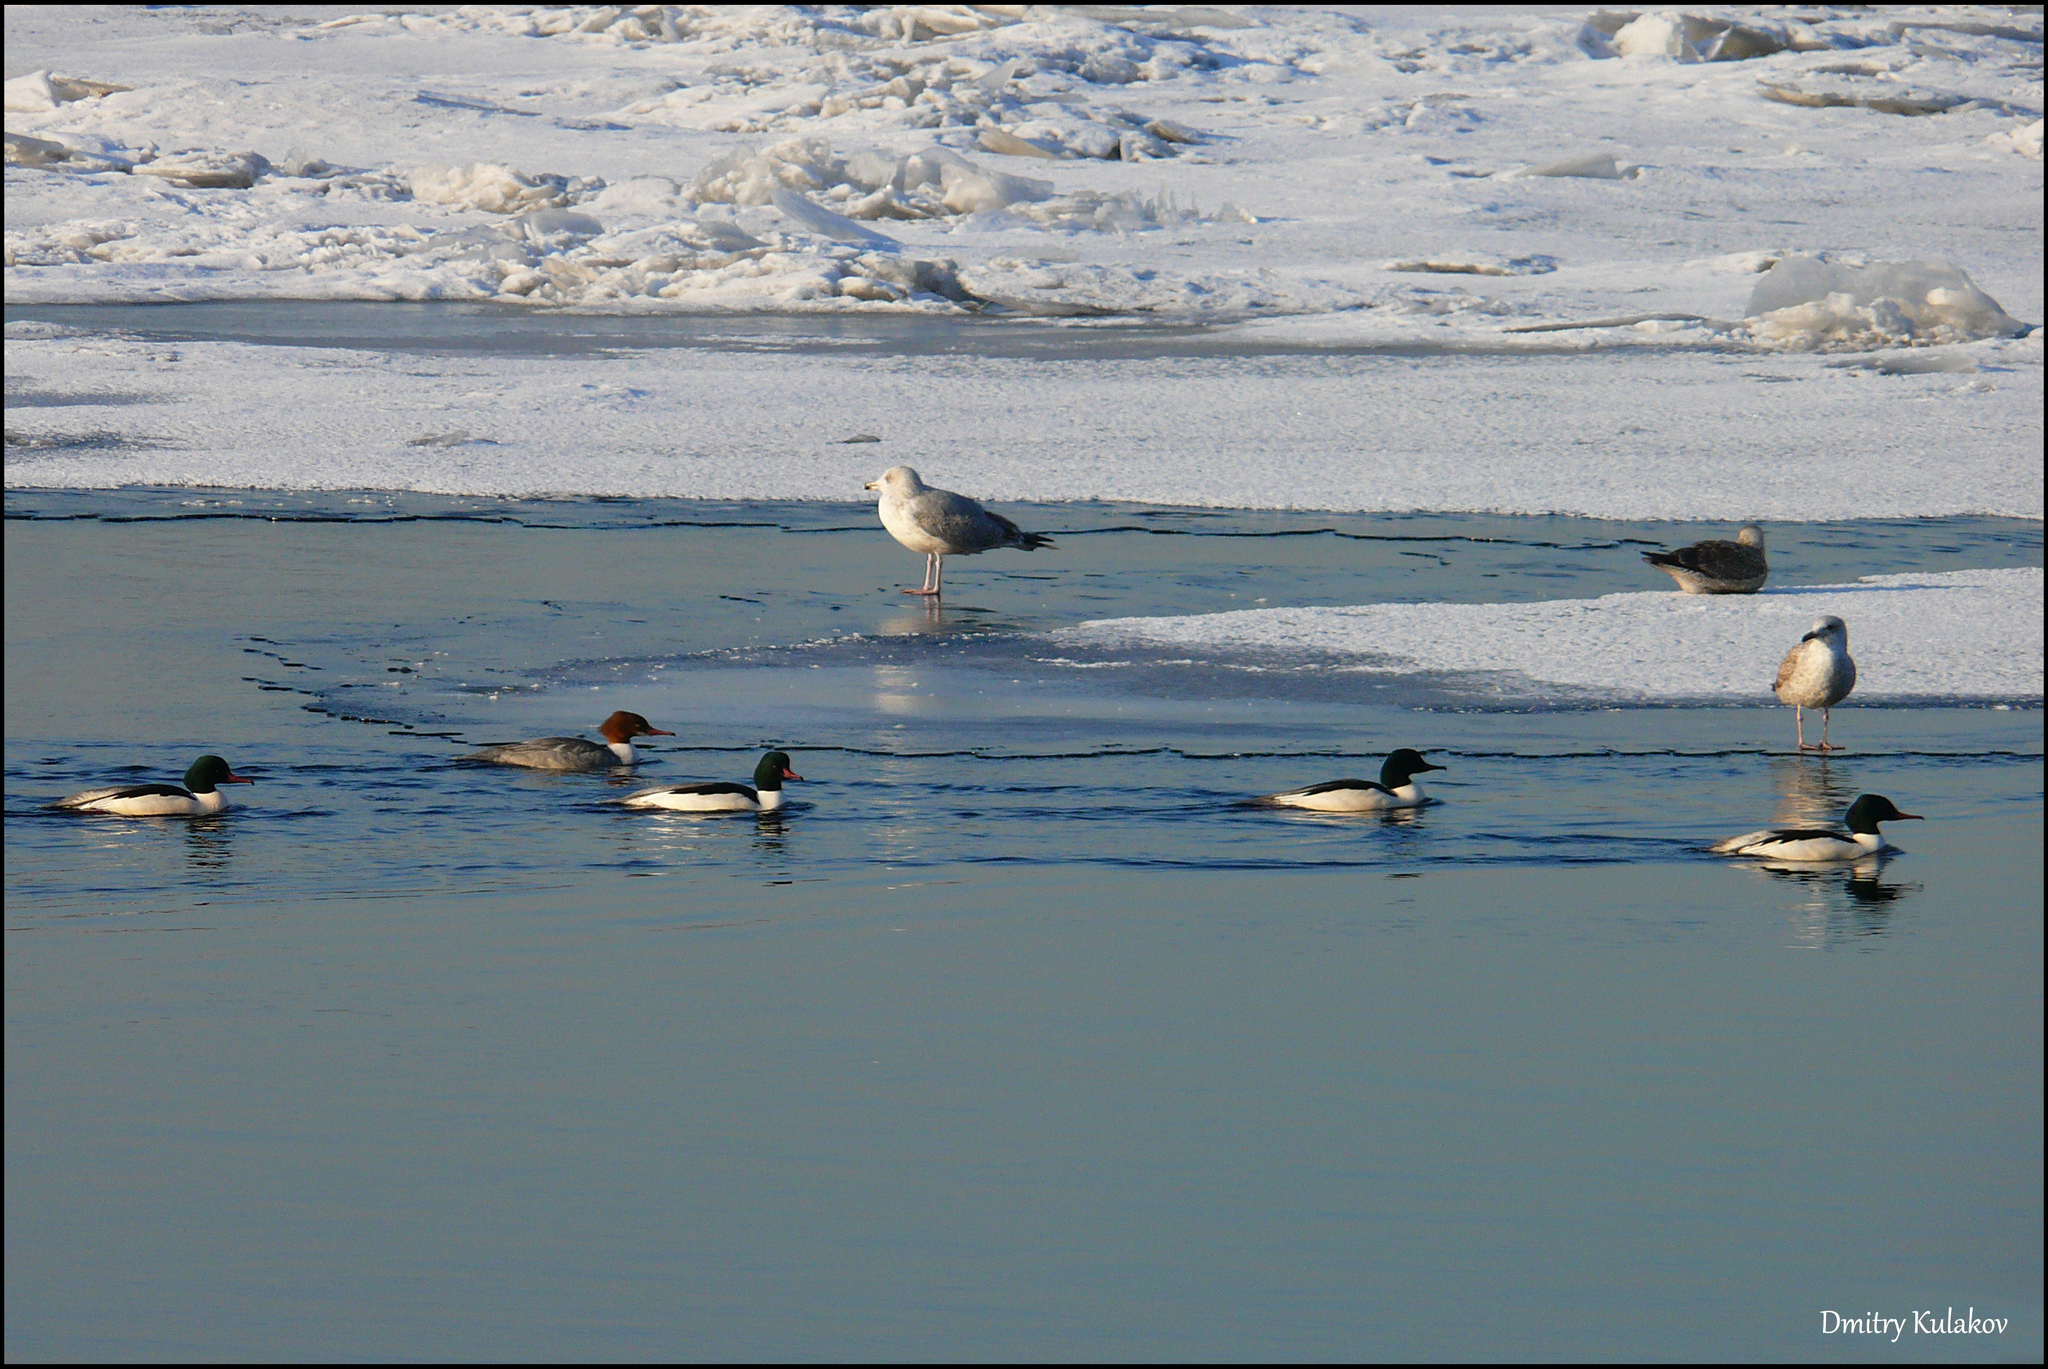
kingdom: Animalia
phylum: Chordata
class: Aves
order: Anseriformes
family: Anatidae
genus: Mergus
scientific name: Mergus merganser
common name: Common merganser
